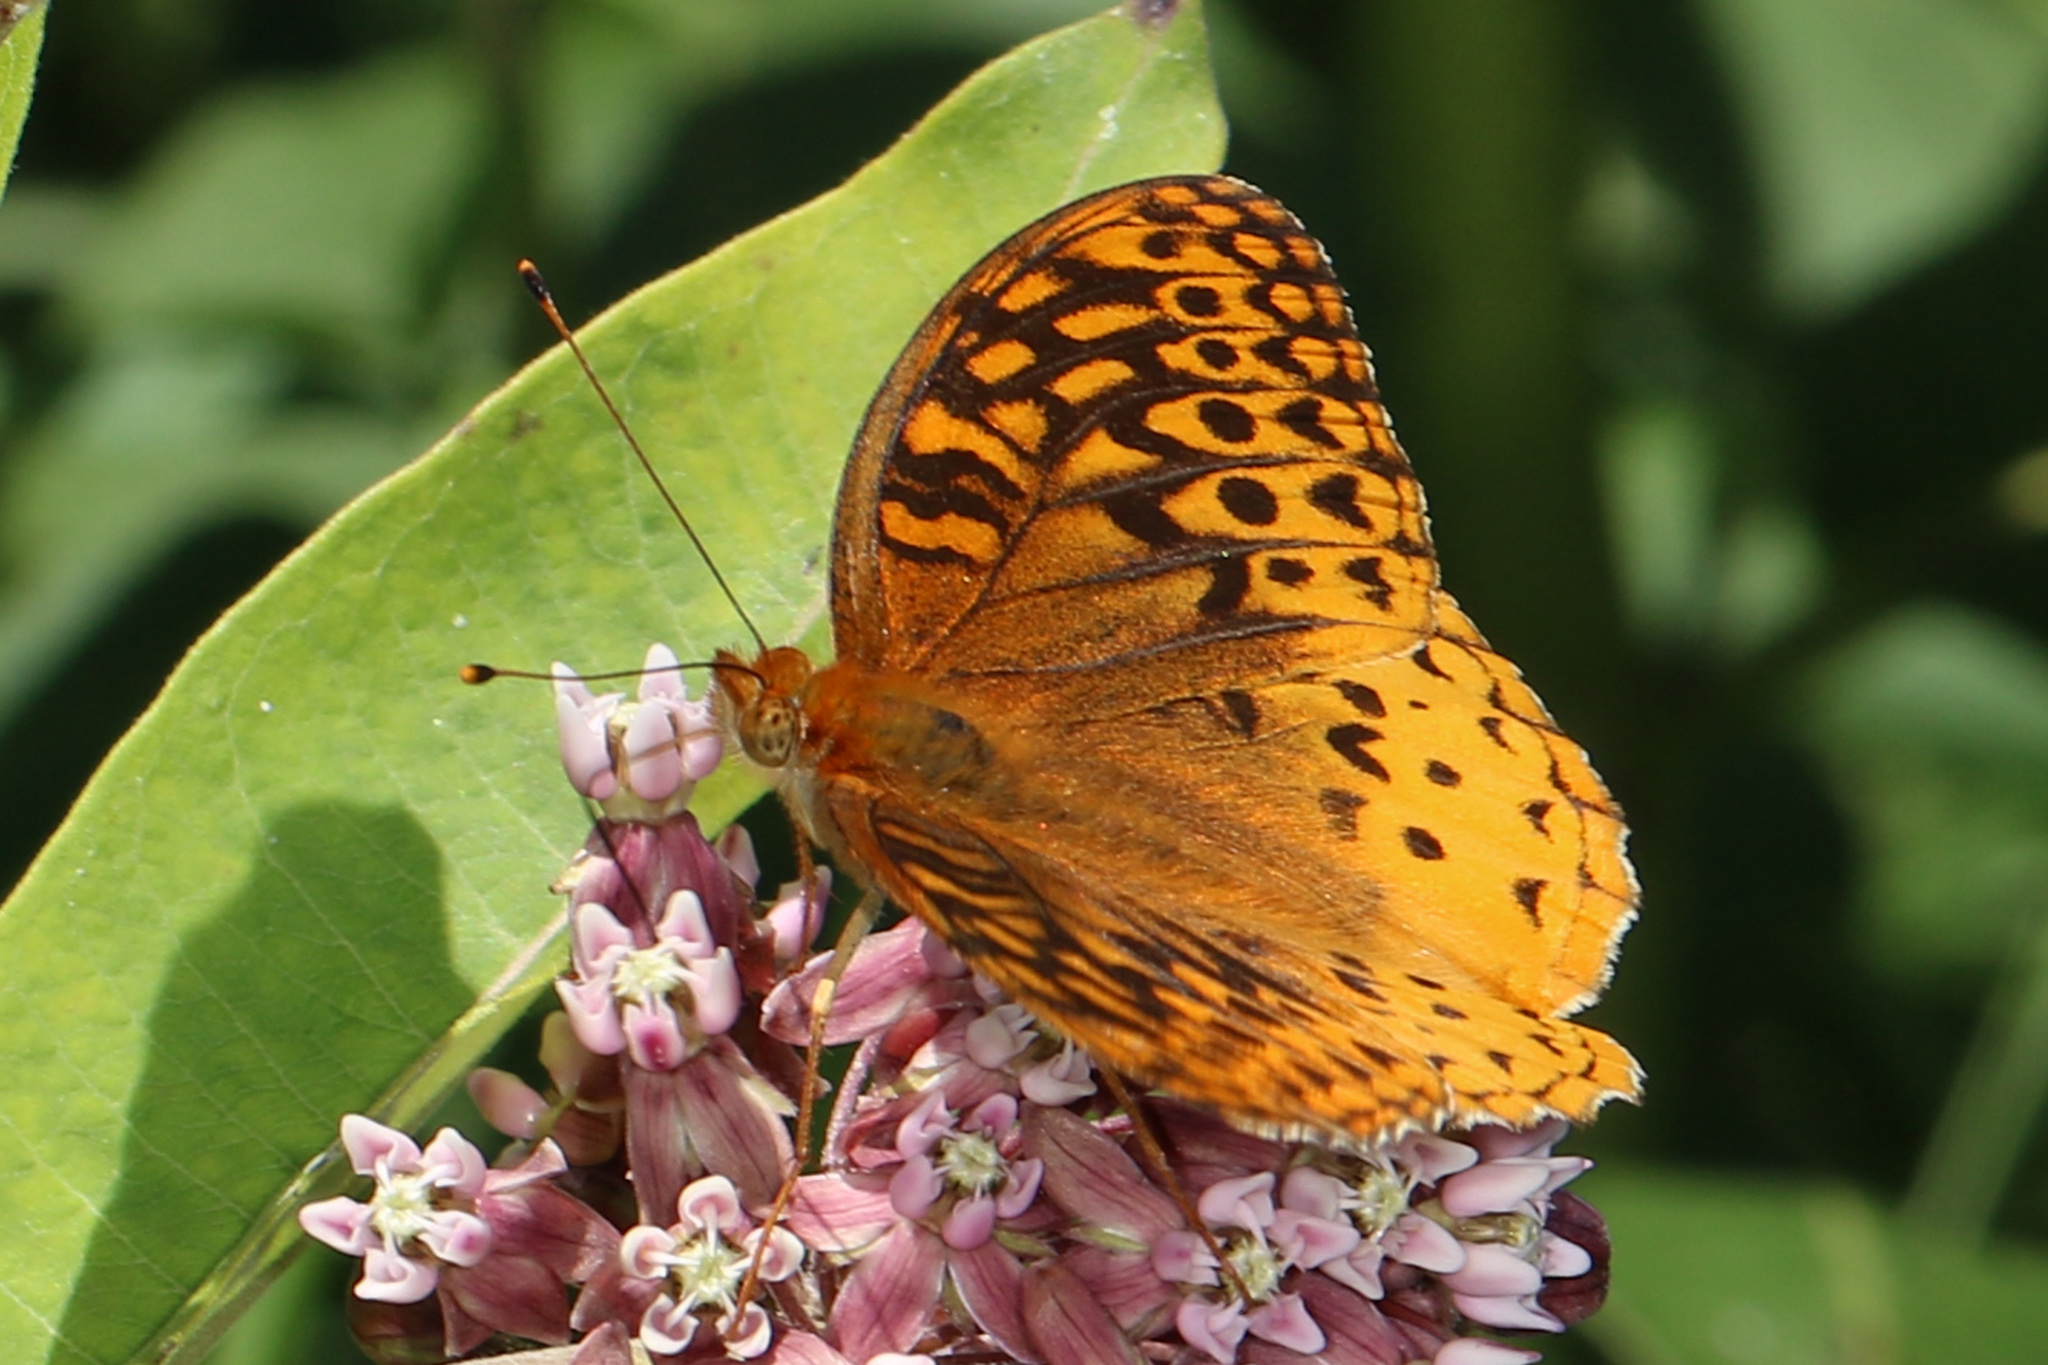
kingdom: Animalia
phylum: Arthropoda
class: Insecta
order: Lepidoptera
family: Nymphalidae
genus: Speyeria
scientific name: Speyeria cybele
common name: Great spangled fritillary
